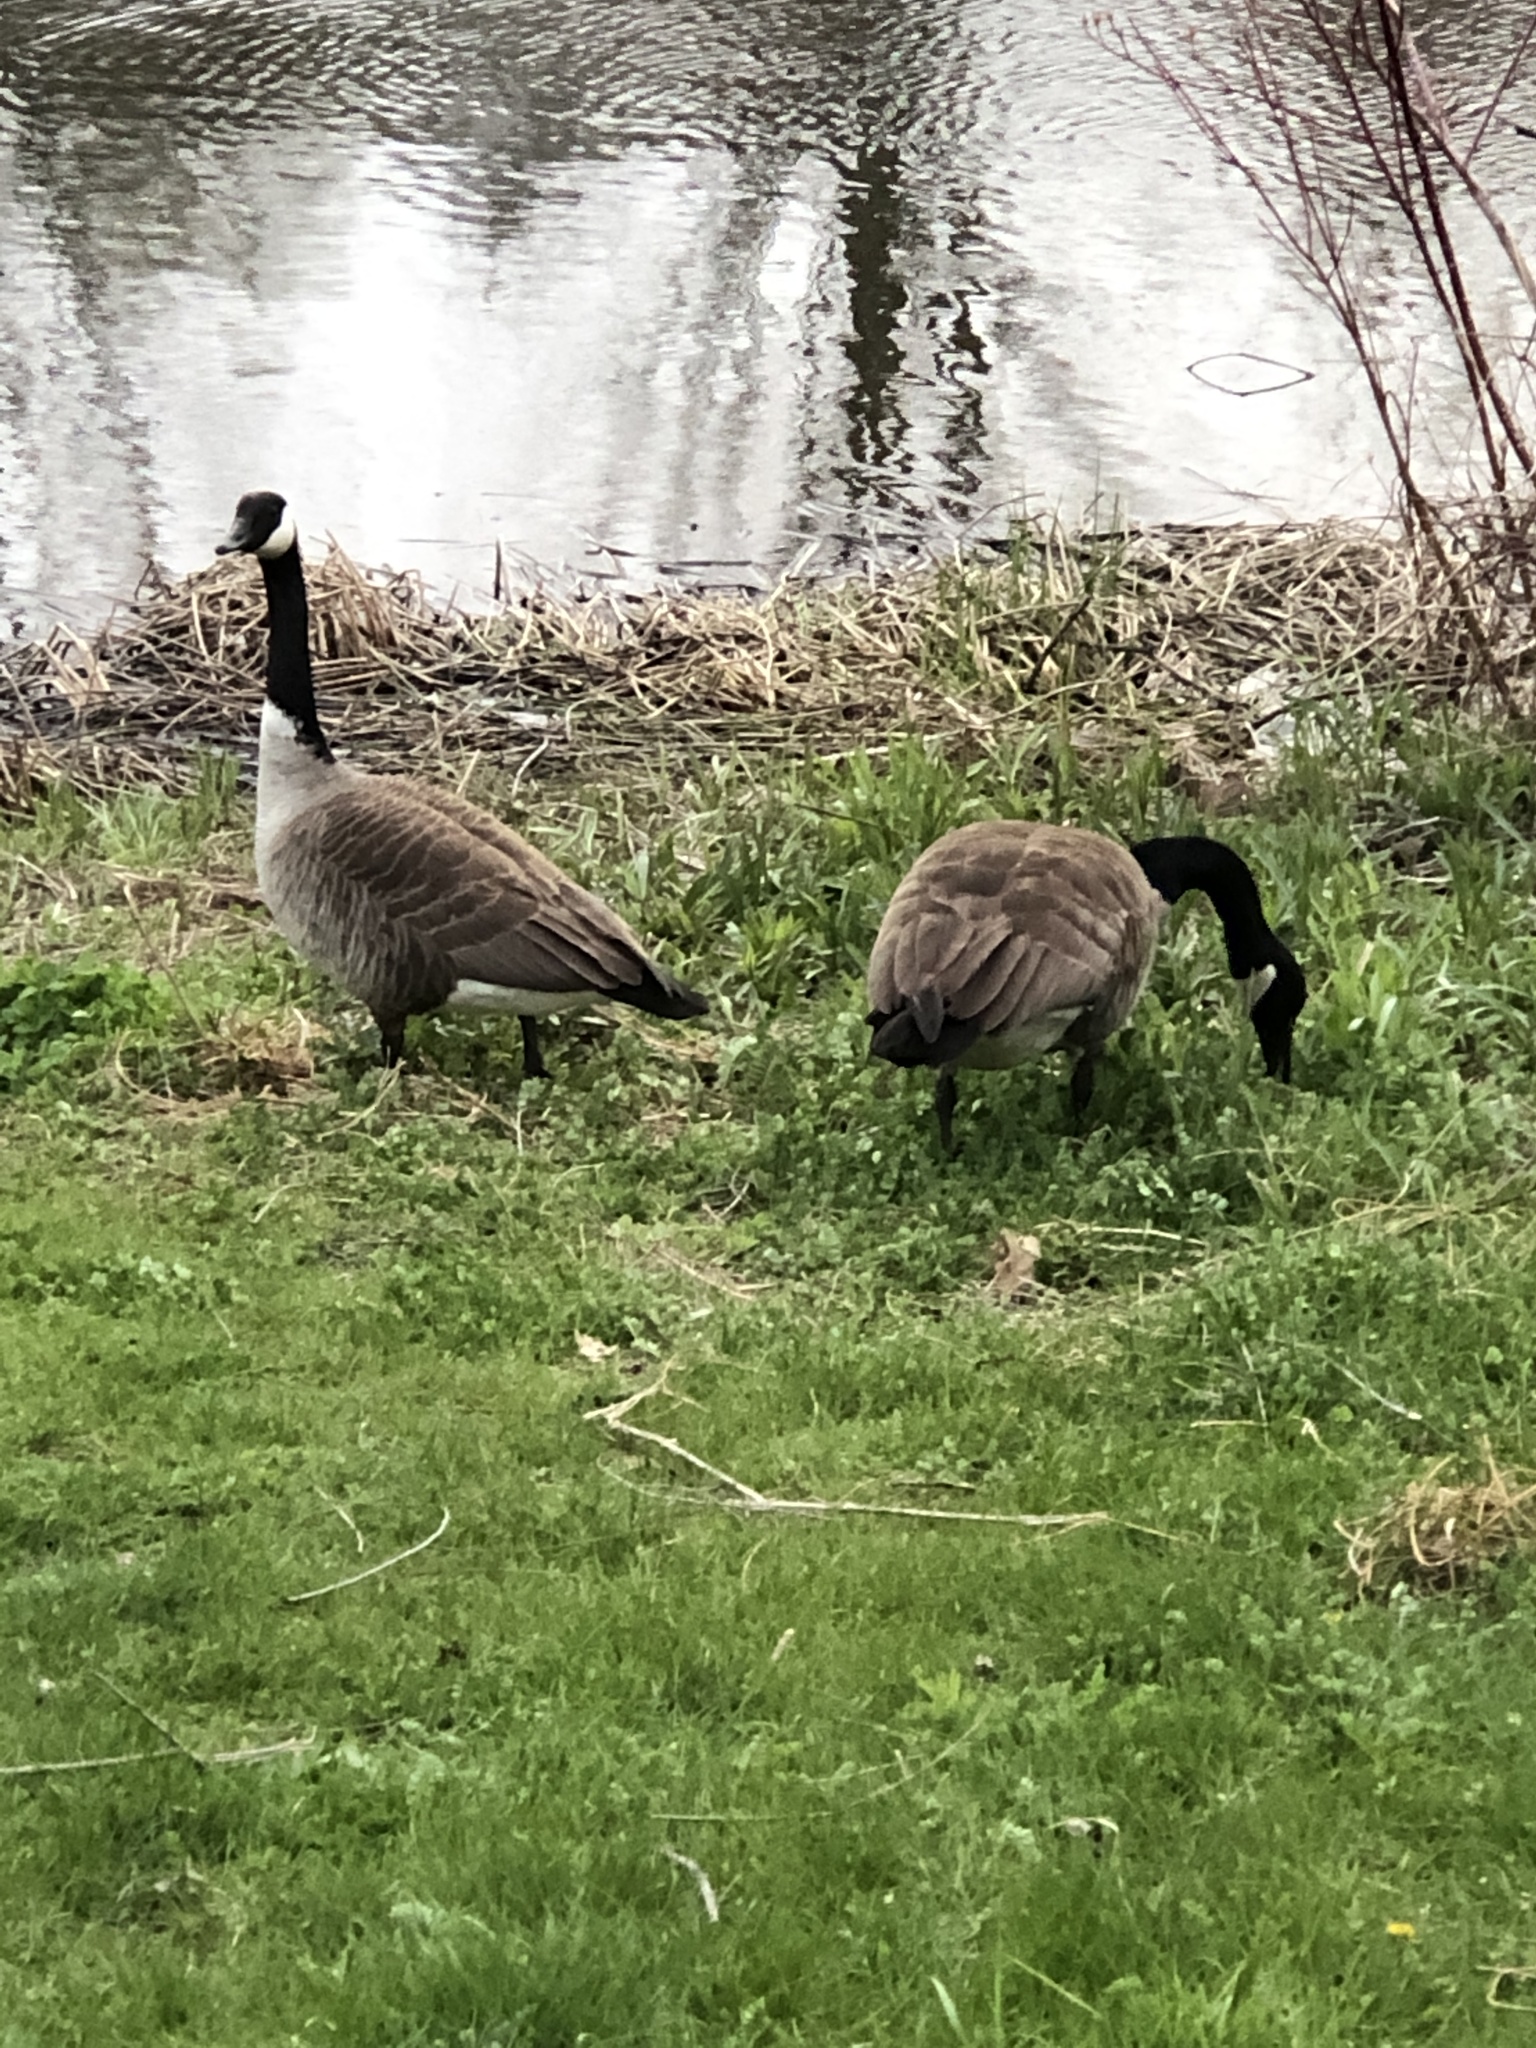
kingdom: Animalia
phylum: Chordata
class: Aves
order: Anseriformes
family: Anatidae
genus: Branta
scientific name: Branta canadensis
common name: Canada goose
